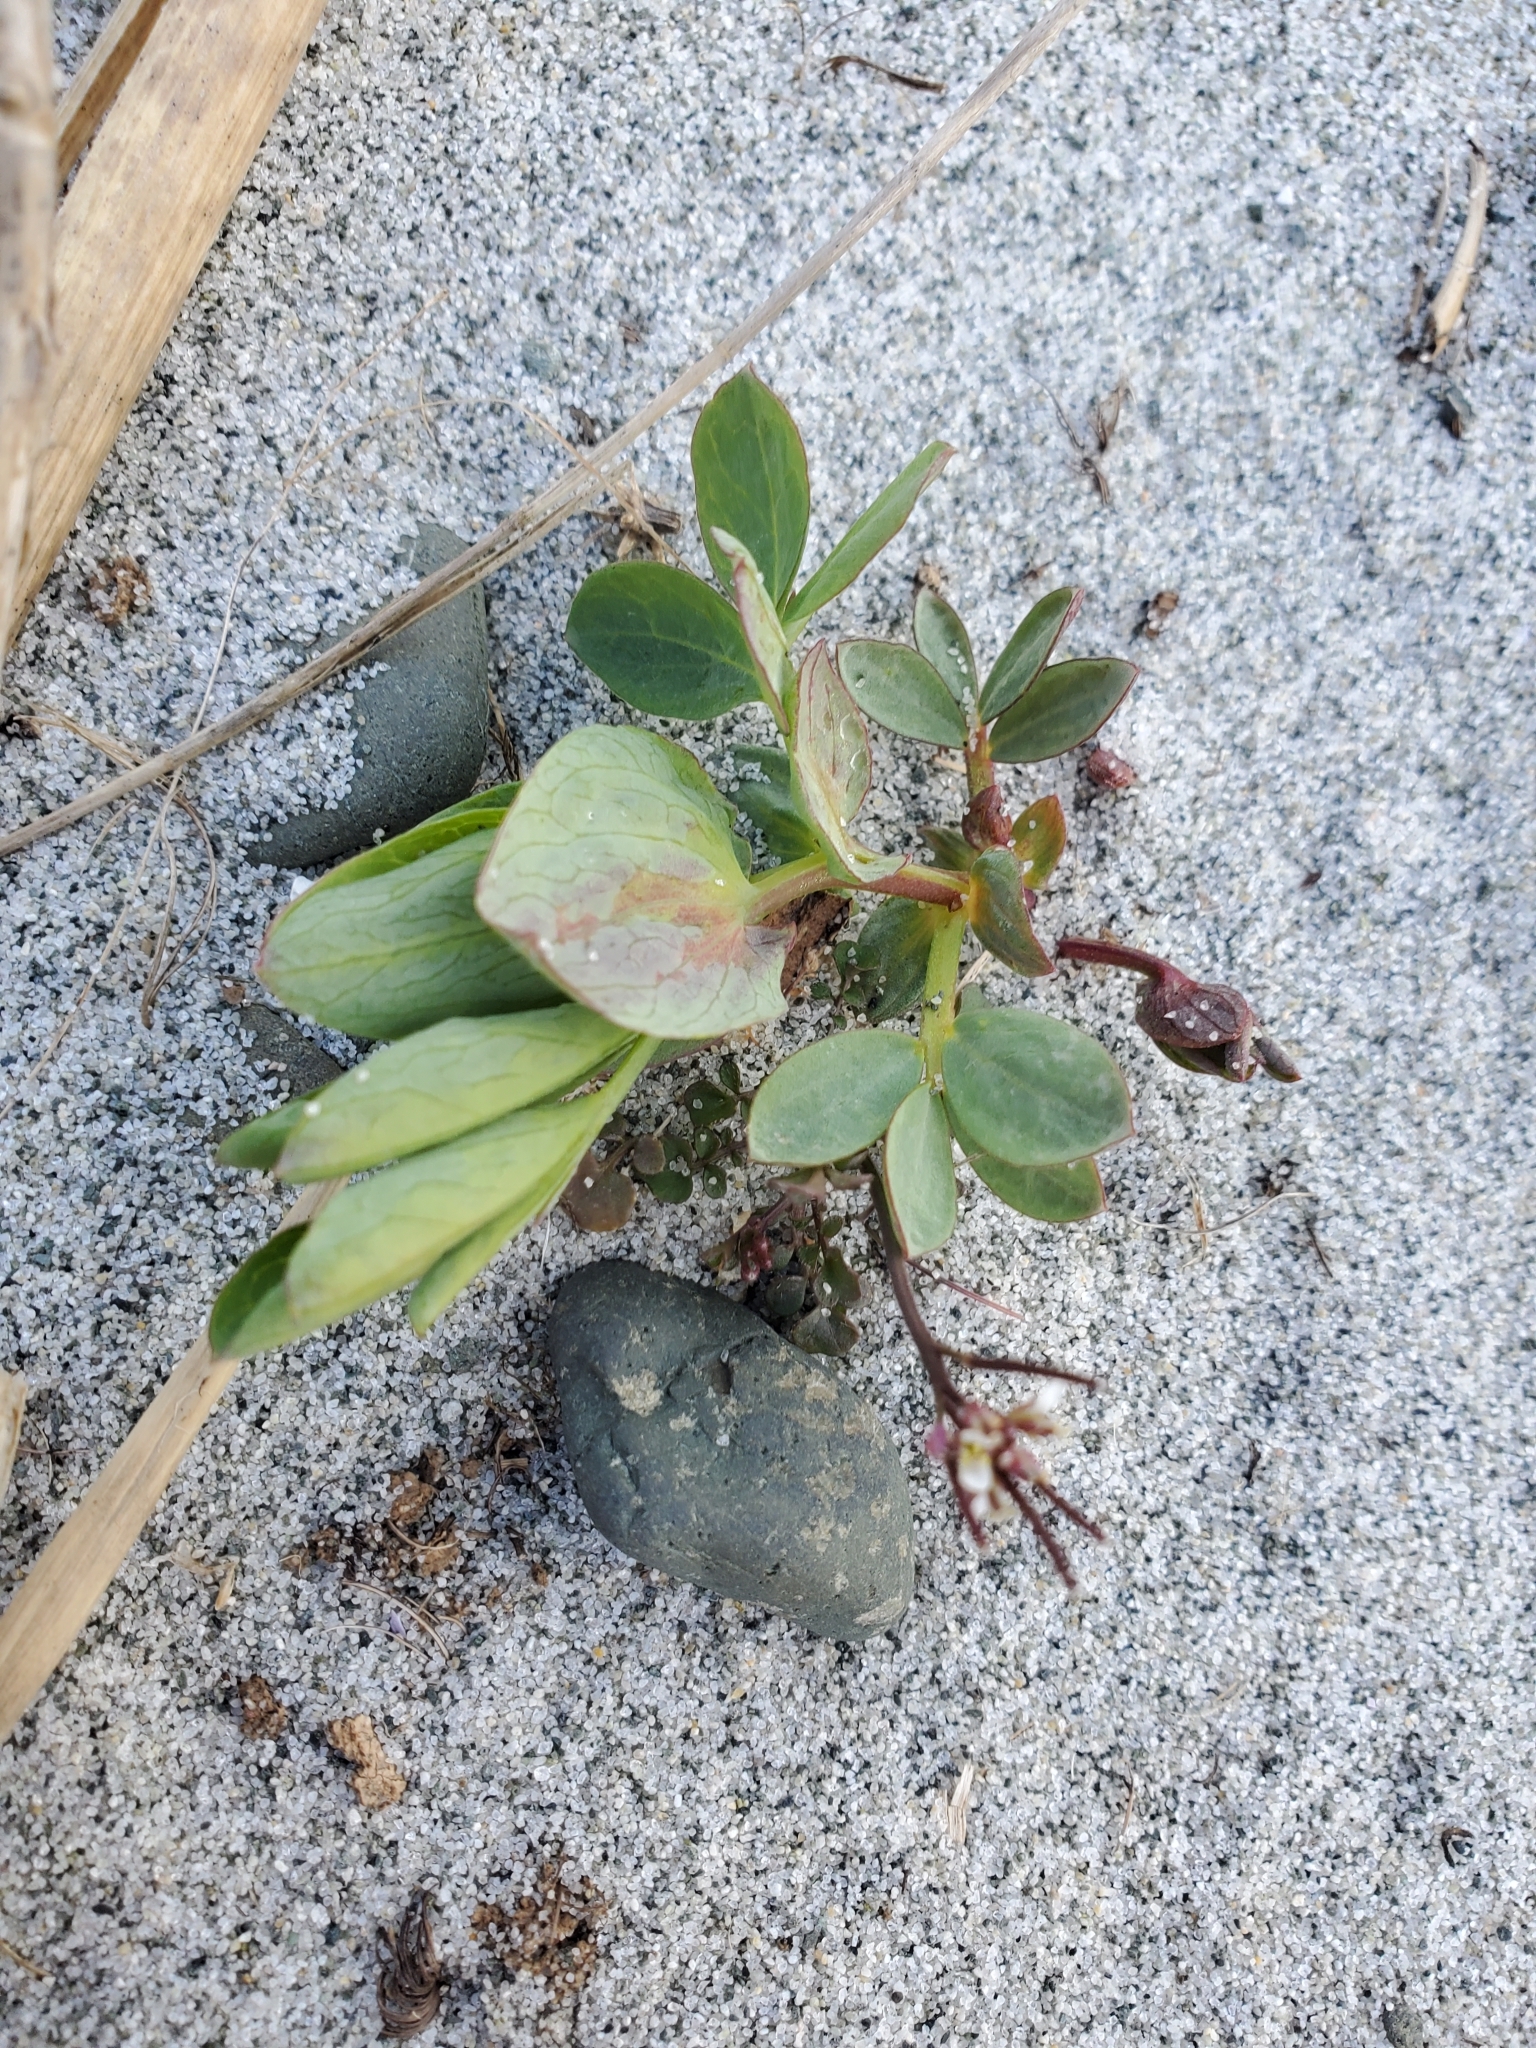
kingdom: Plantae
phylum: Tracheophyta
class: Magnoliopsida
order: Fabales
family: Fabaceae
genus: Lathyrus
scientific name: Lathyrus japonicus
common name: Sea pea
